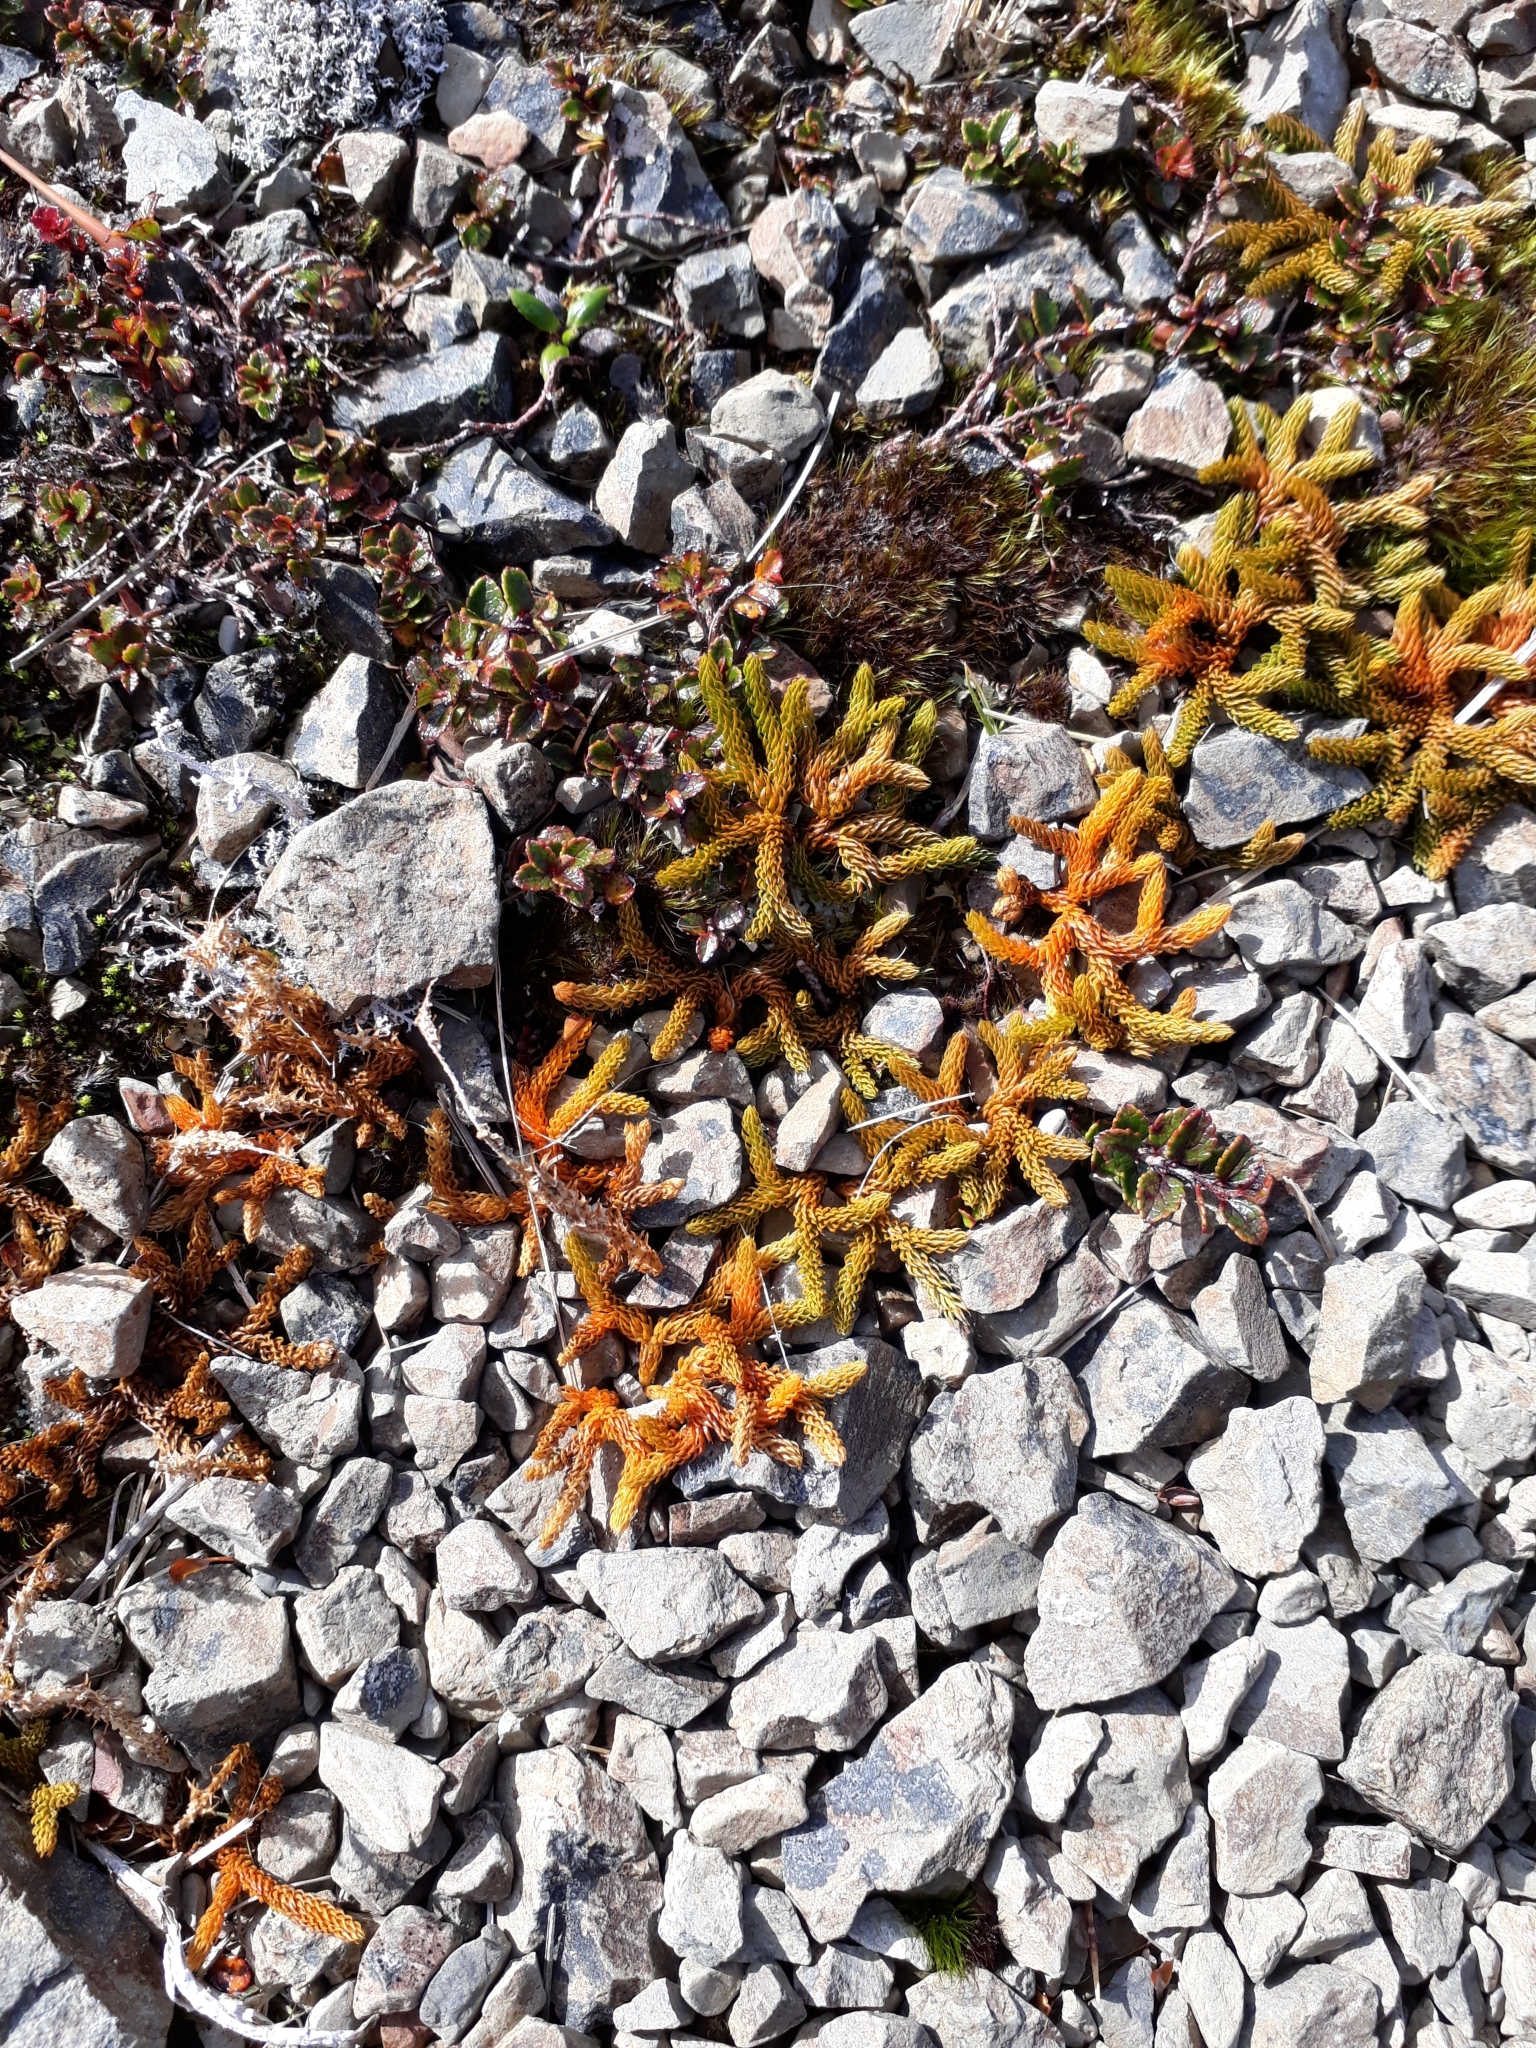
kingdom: Plantae
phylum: Tracheophyta
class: Lycopodiopsida
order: Lycopodiales
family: Lycopodiaceae
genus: Austrolycopodium
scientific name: Austrolycopodium fastigiatum
